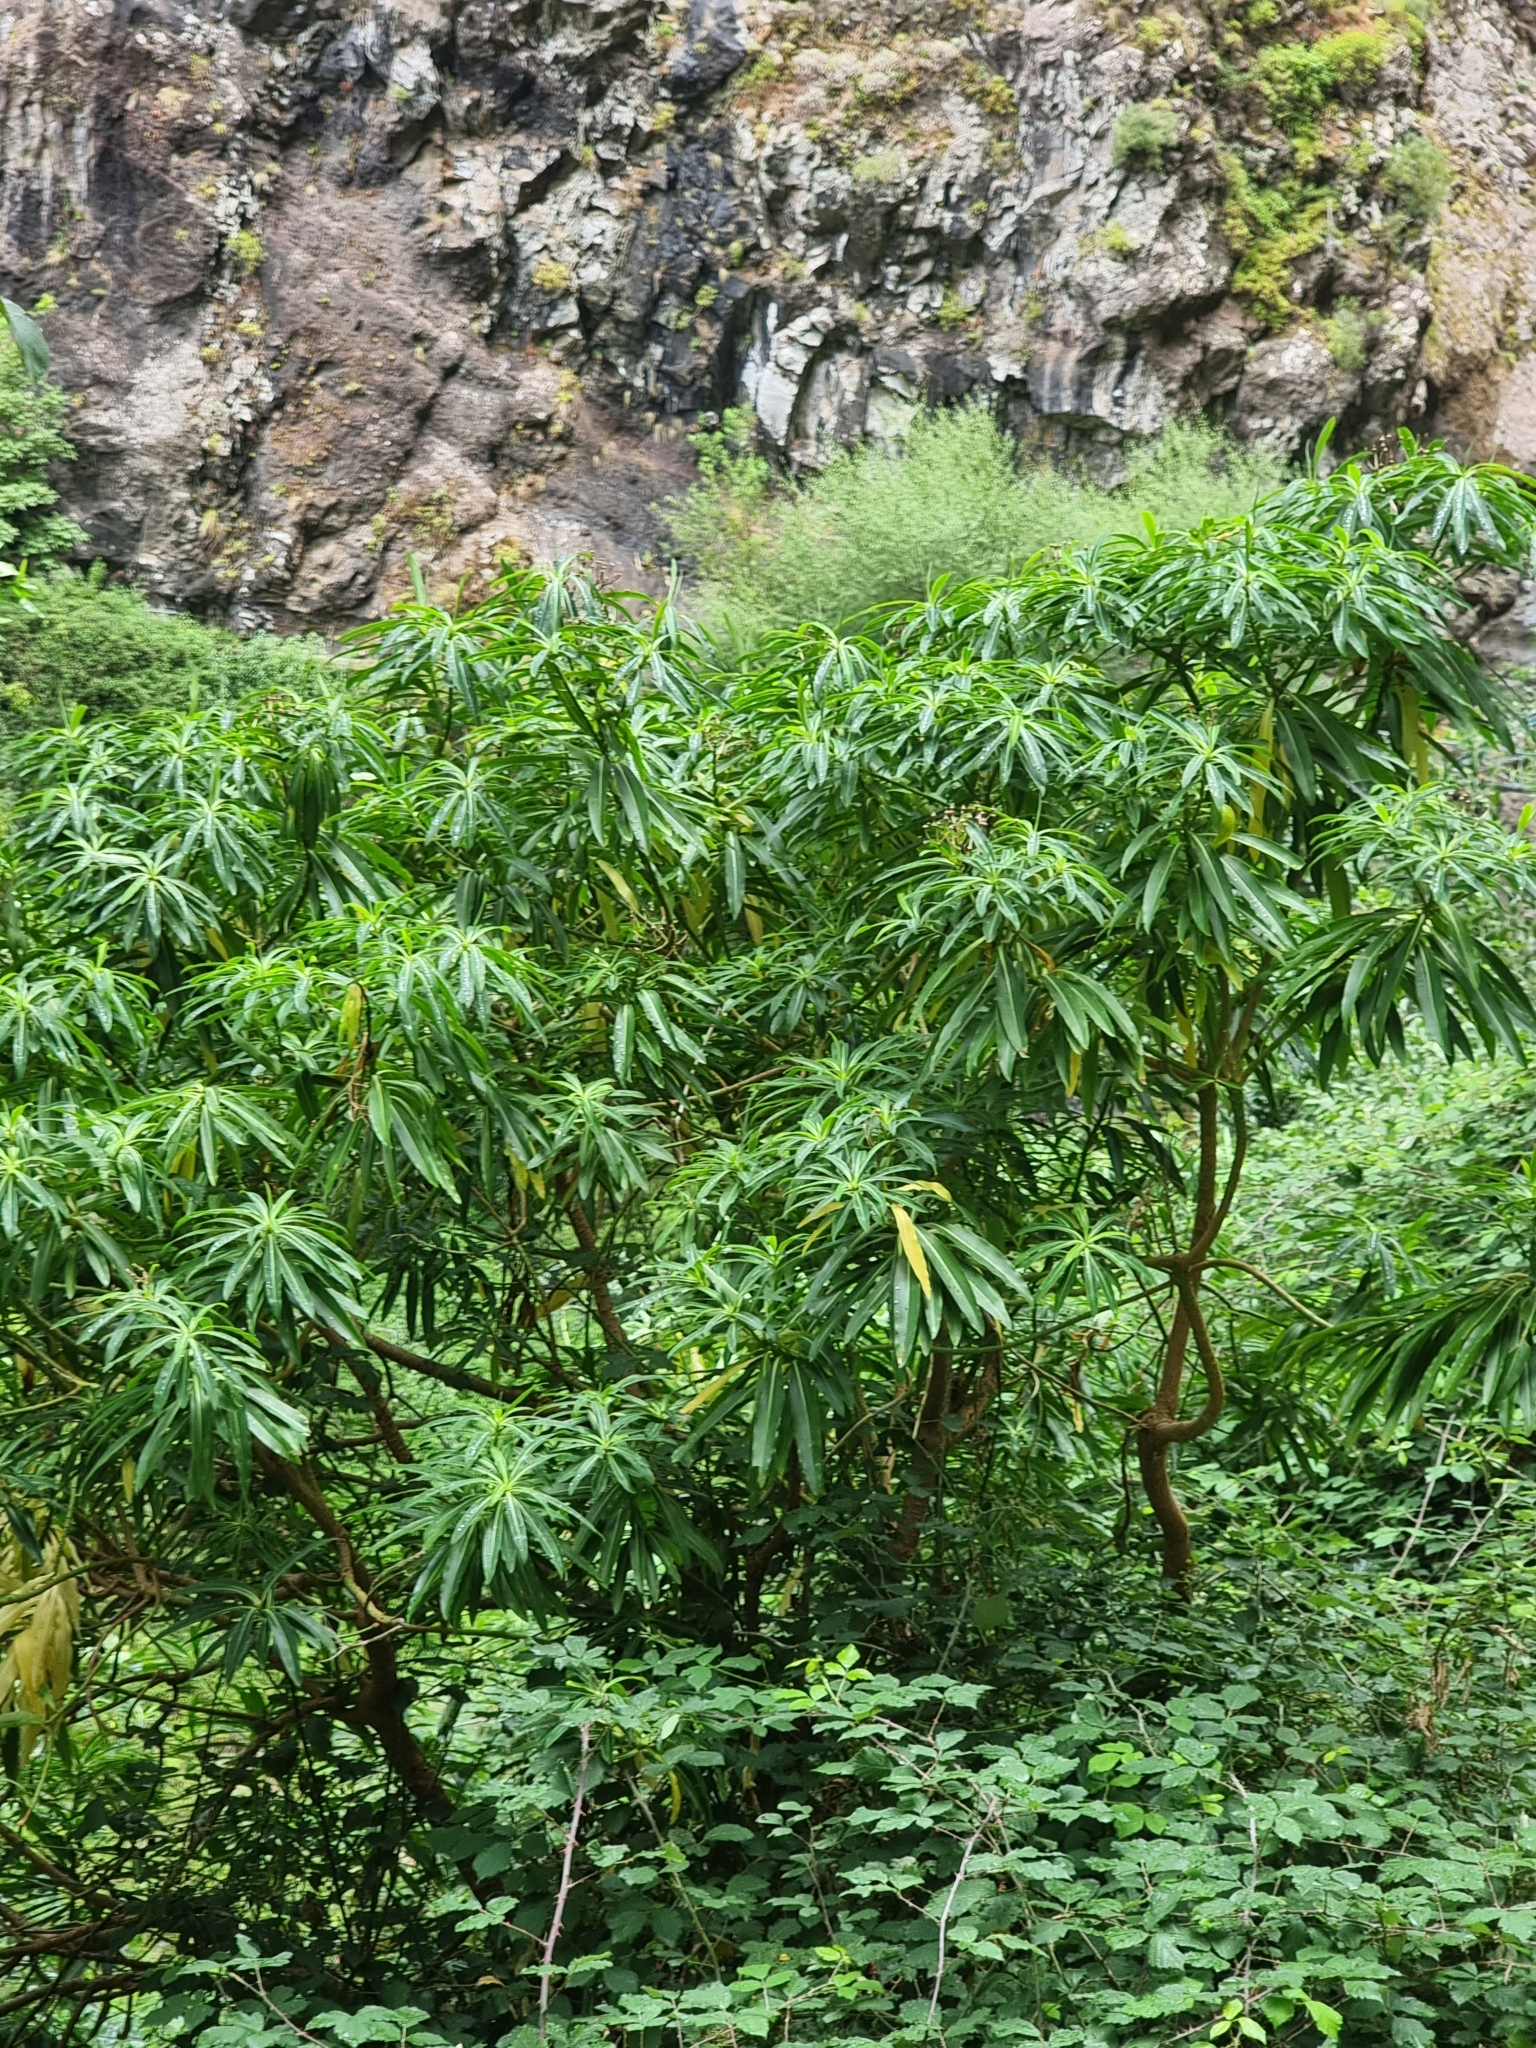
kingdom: Plantae
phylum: Tracheophyta
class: Magnoliopsida
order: Malpighiales
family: Euphorbiaceae
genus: Euphorbia
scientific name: Euphorbia mellifera
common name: Canary spurge
